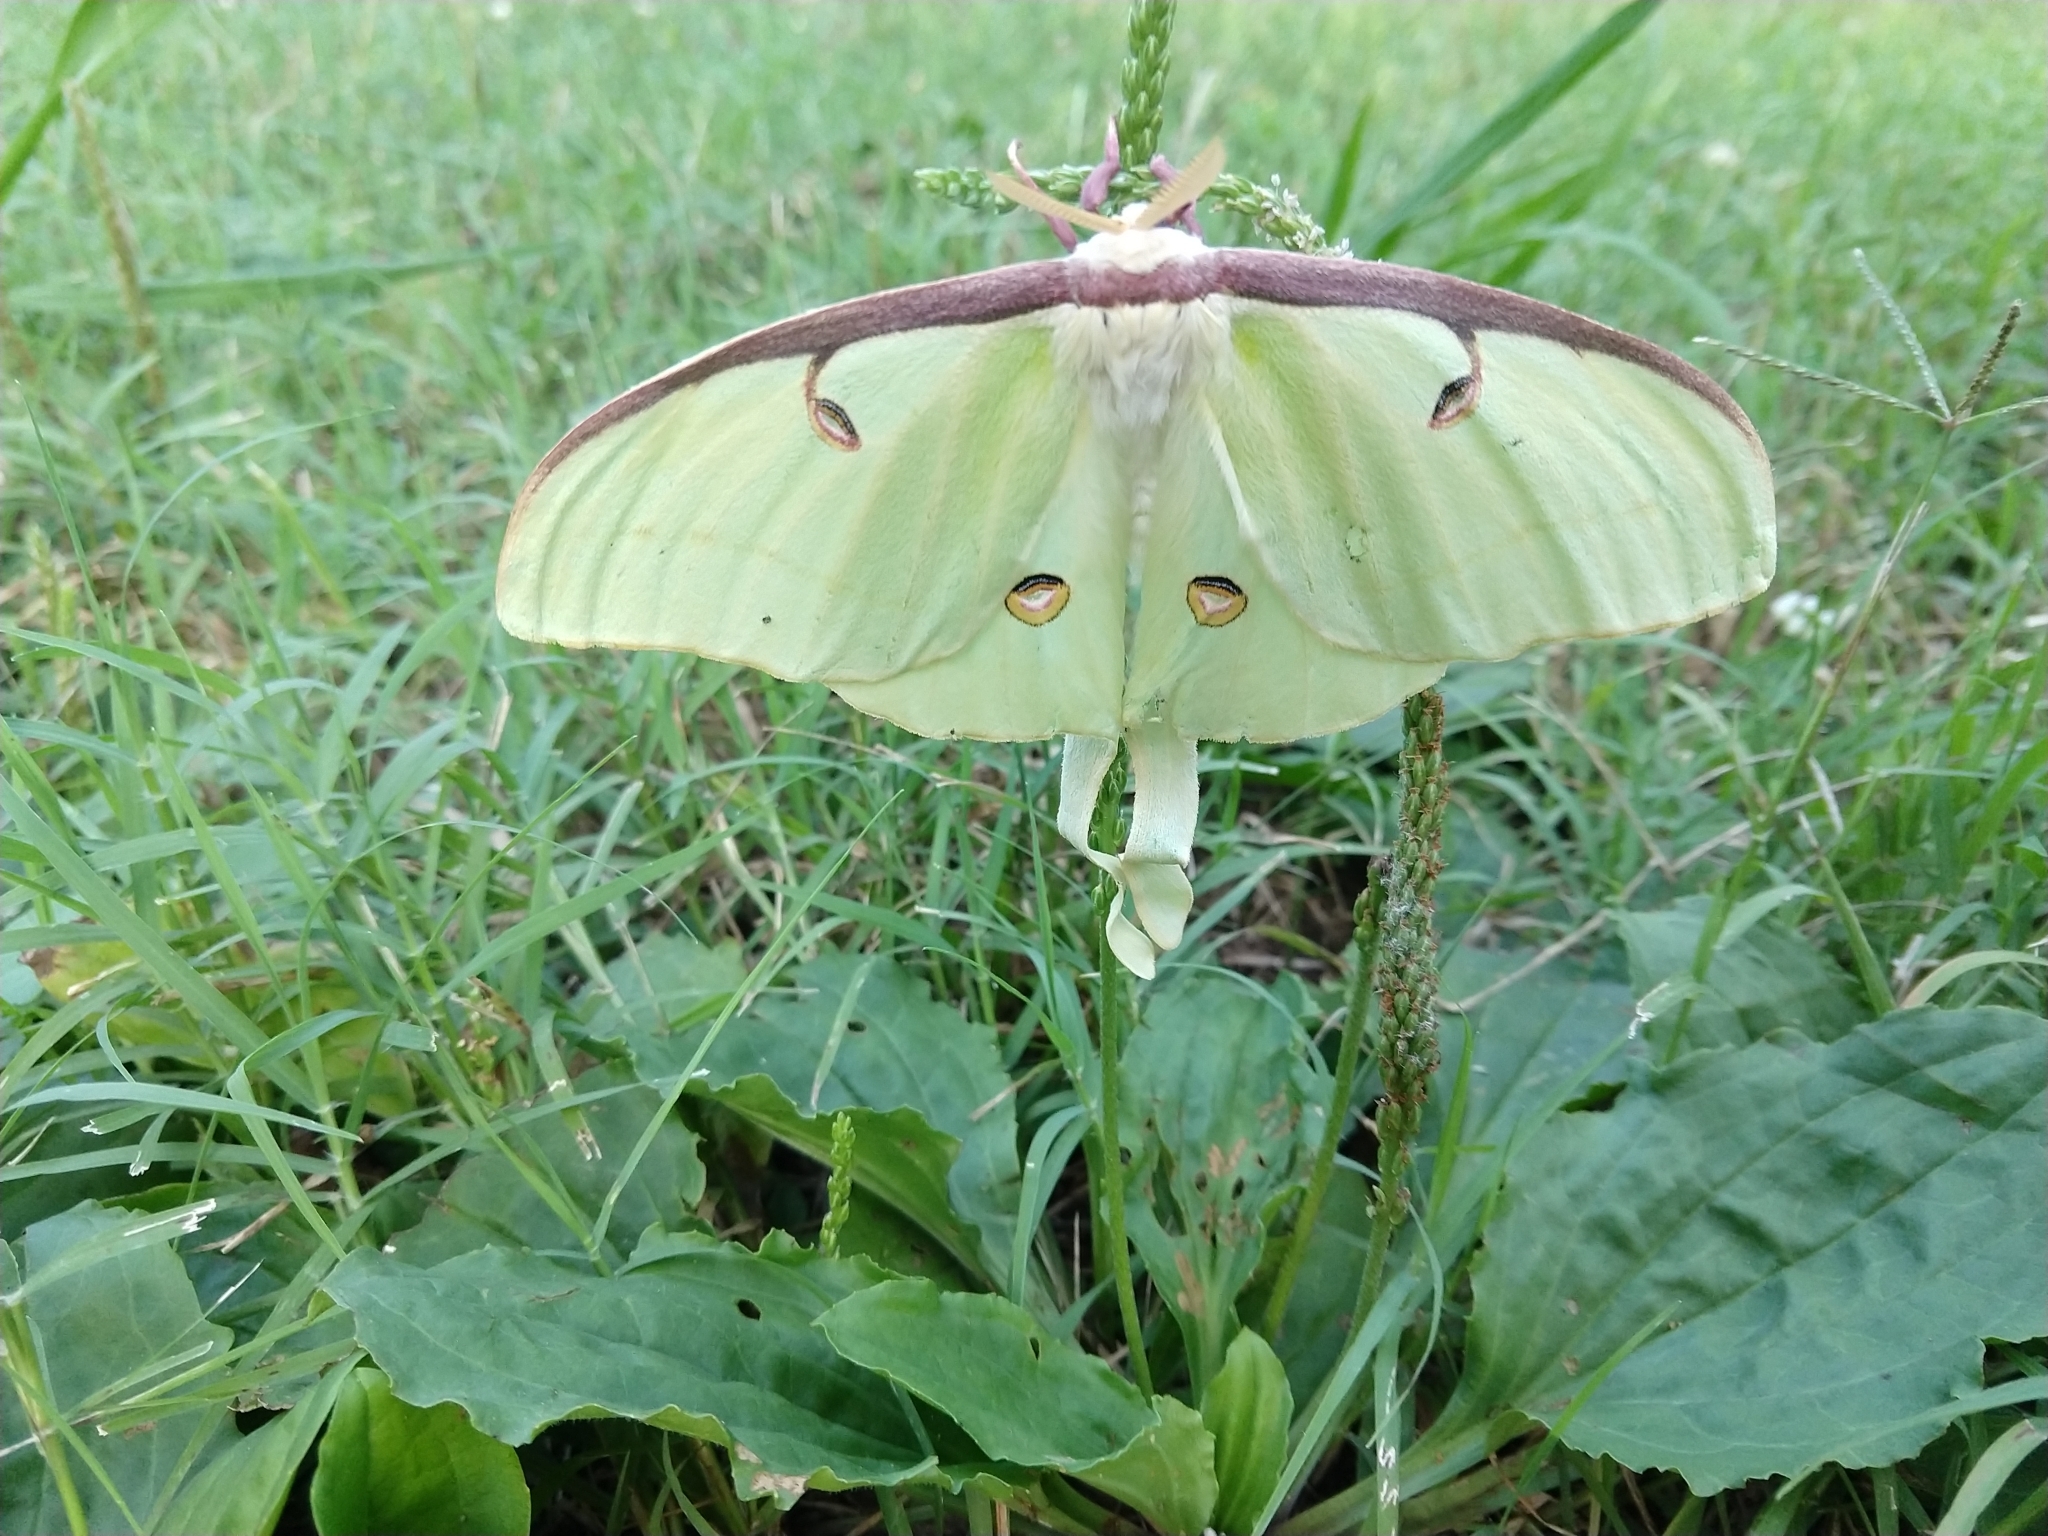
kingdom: Animalia
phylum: Arthropoda
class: Insecta
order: Lepidoptera
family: Saturniidae
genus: Actias
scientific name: Actias luna
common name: Luna moth
